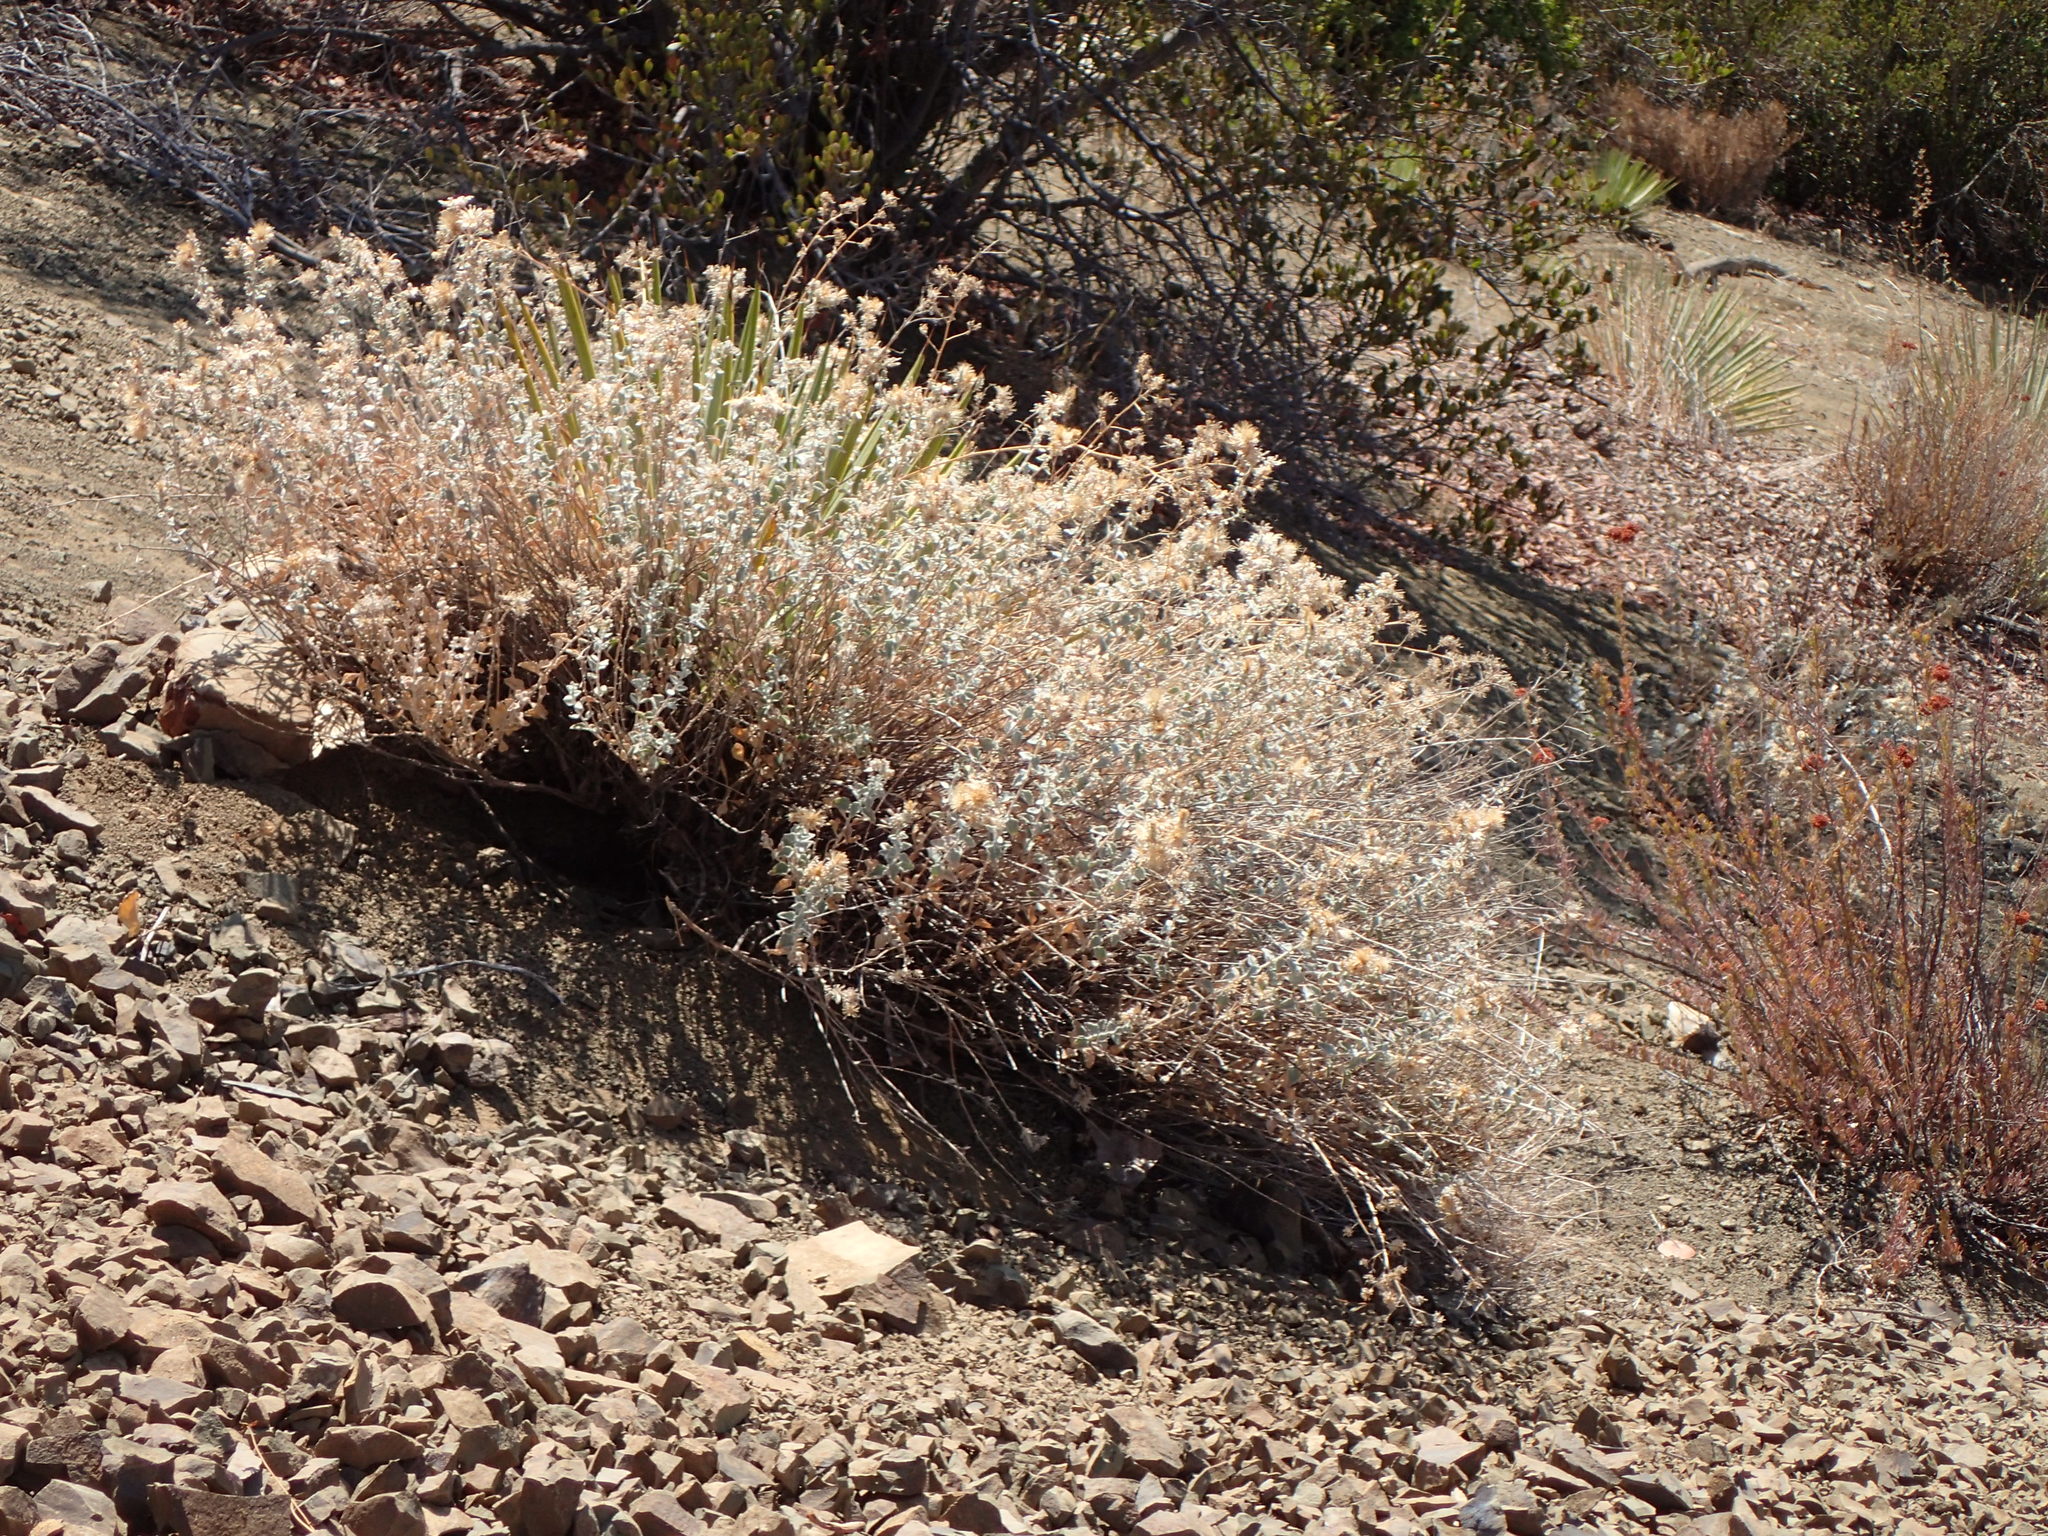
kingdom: Plantae
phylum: Tracheophyta
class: Magnoliopsida
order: Asterales
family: Asteraceae
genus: Brickellia
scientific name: Brickellia nevinii
